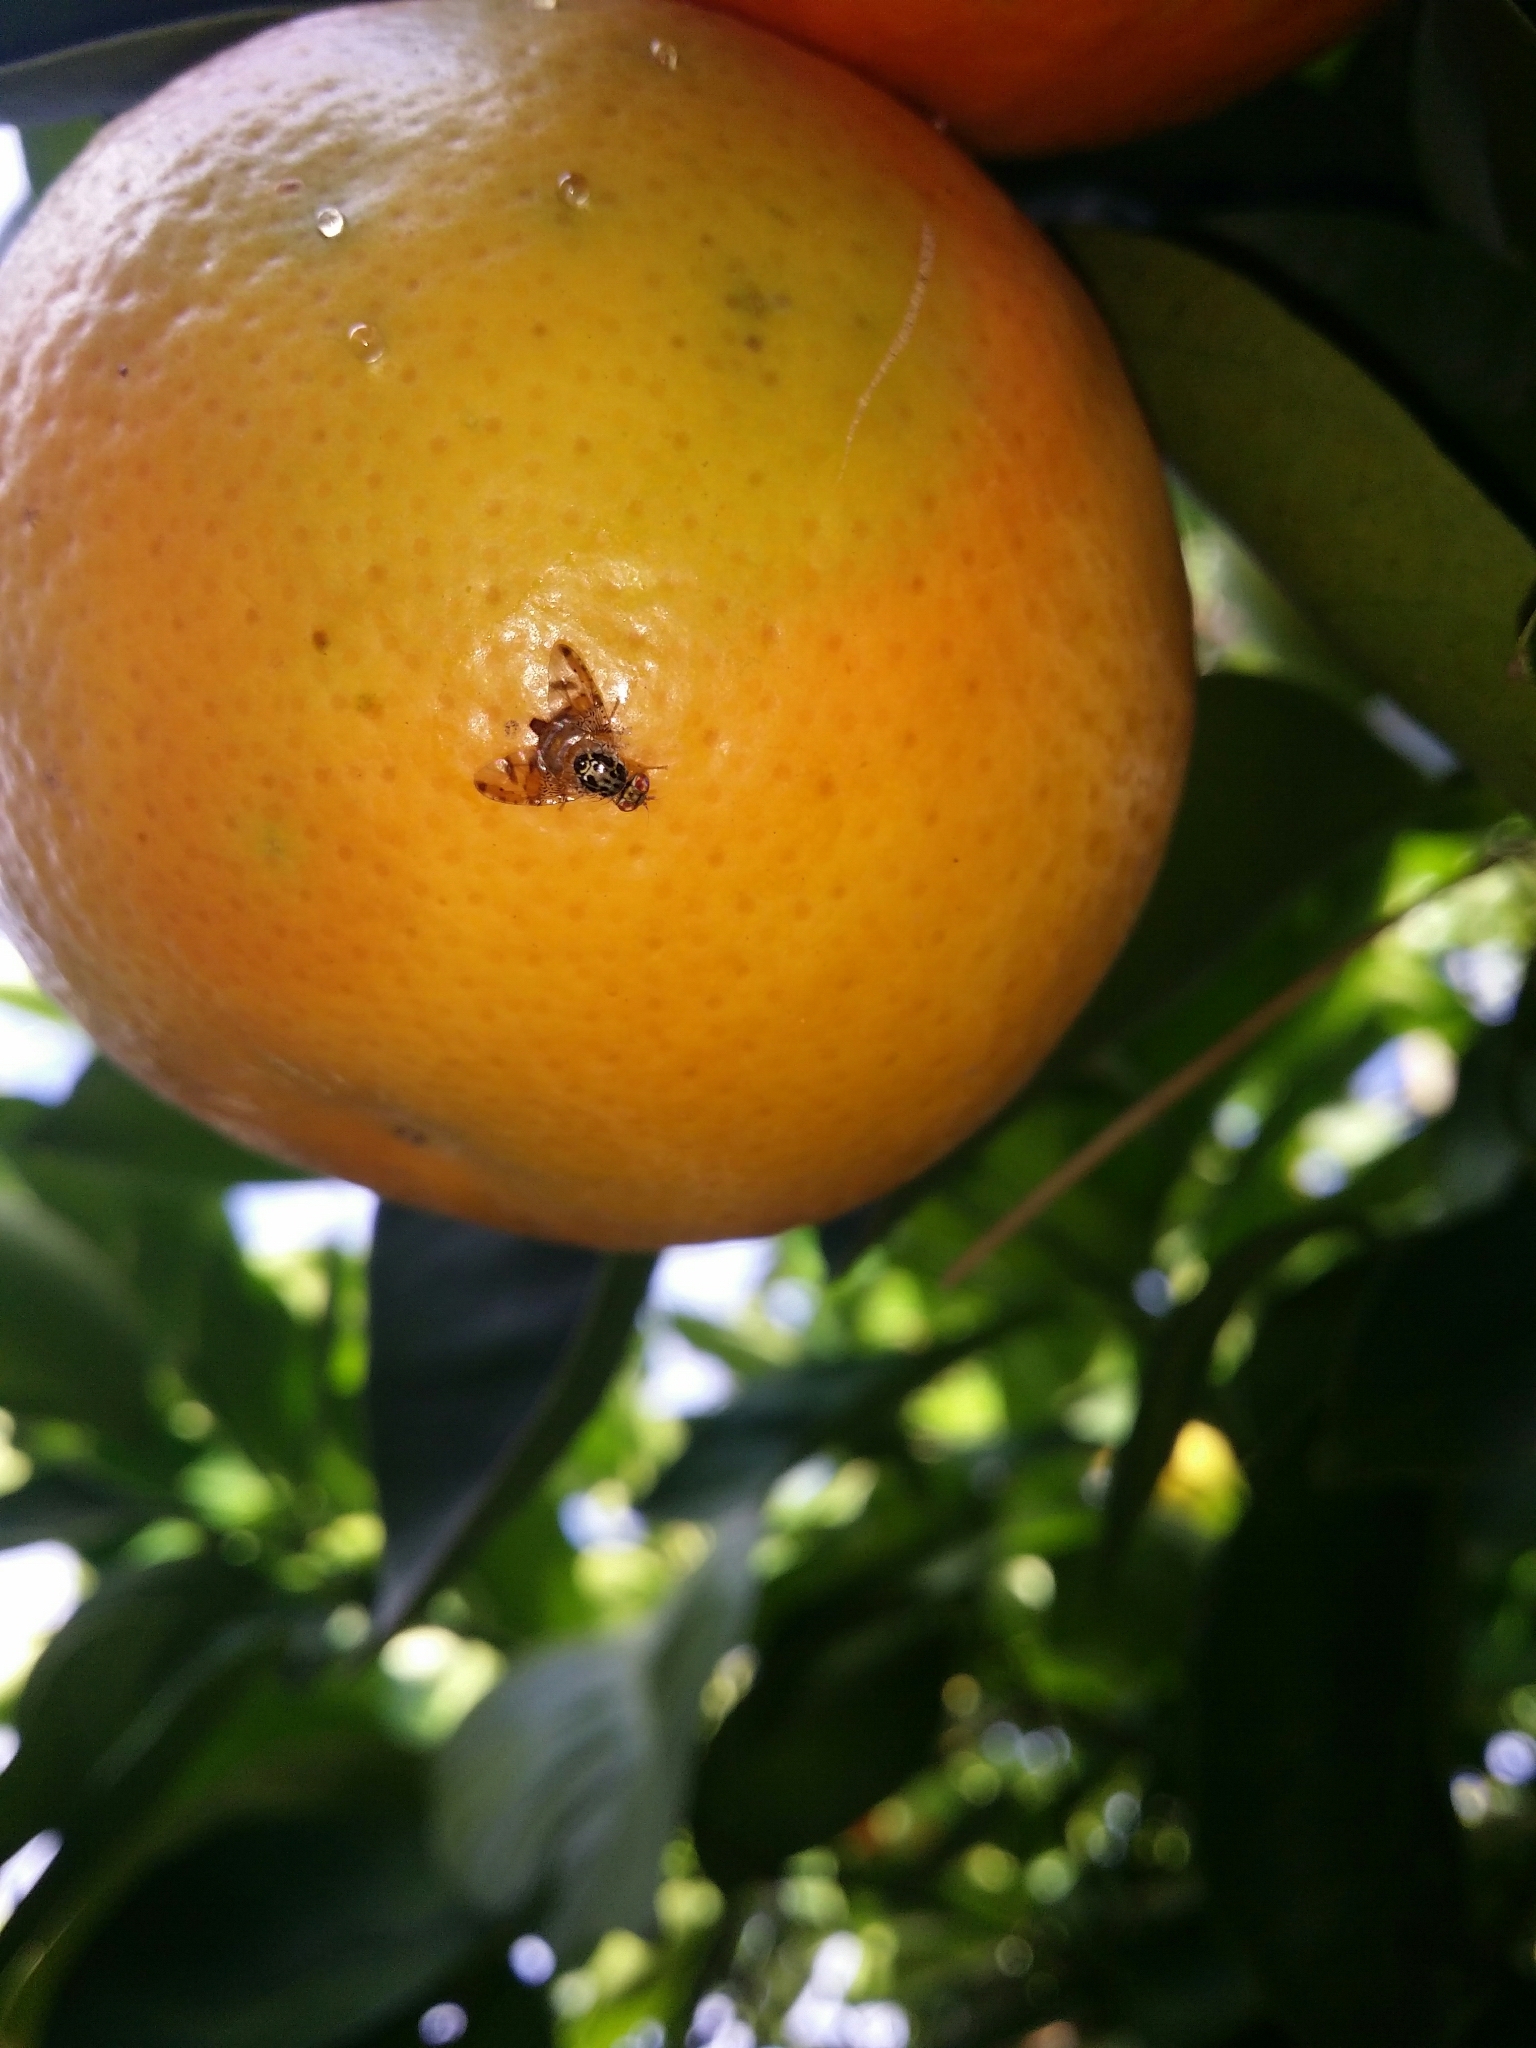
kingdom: Animalia
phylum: Arthropoda
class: Insecta
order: Diptera
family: Tephritidae
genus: Ceratitis
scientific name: Ceratitis capitata
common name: Mediterranean fruit fly
